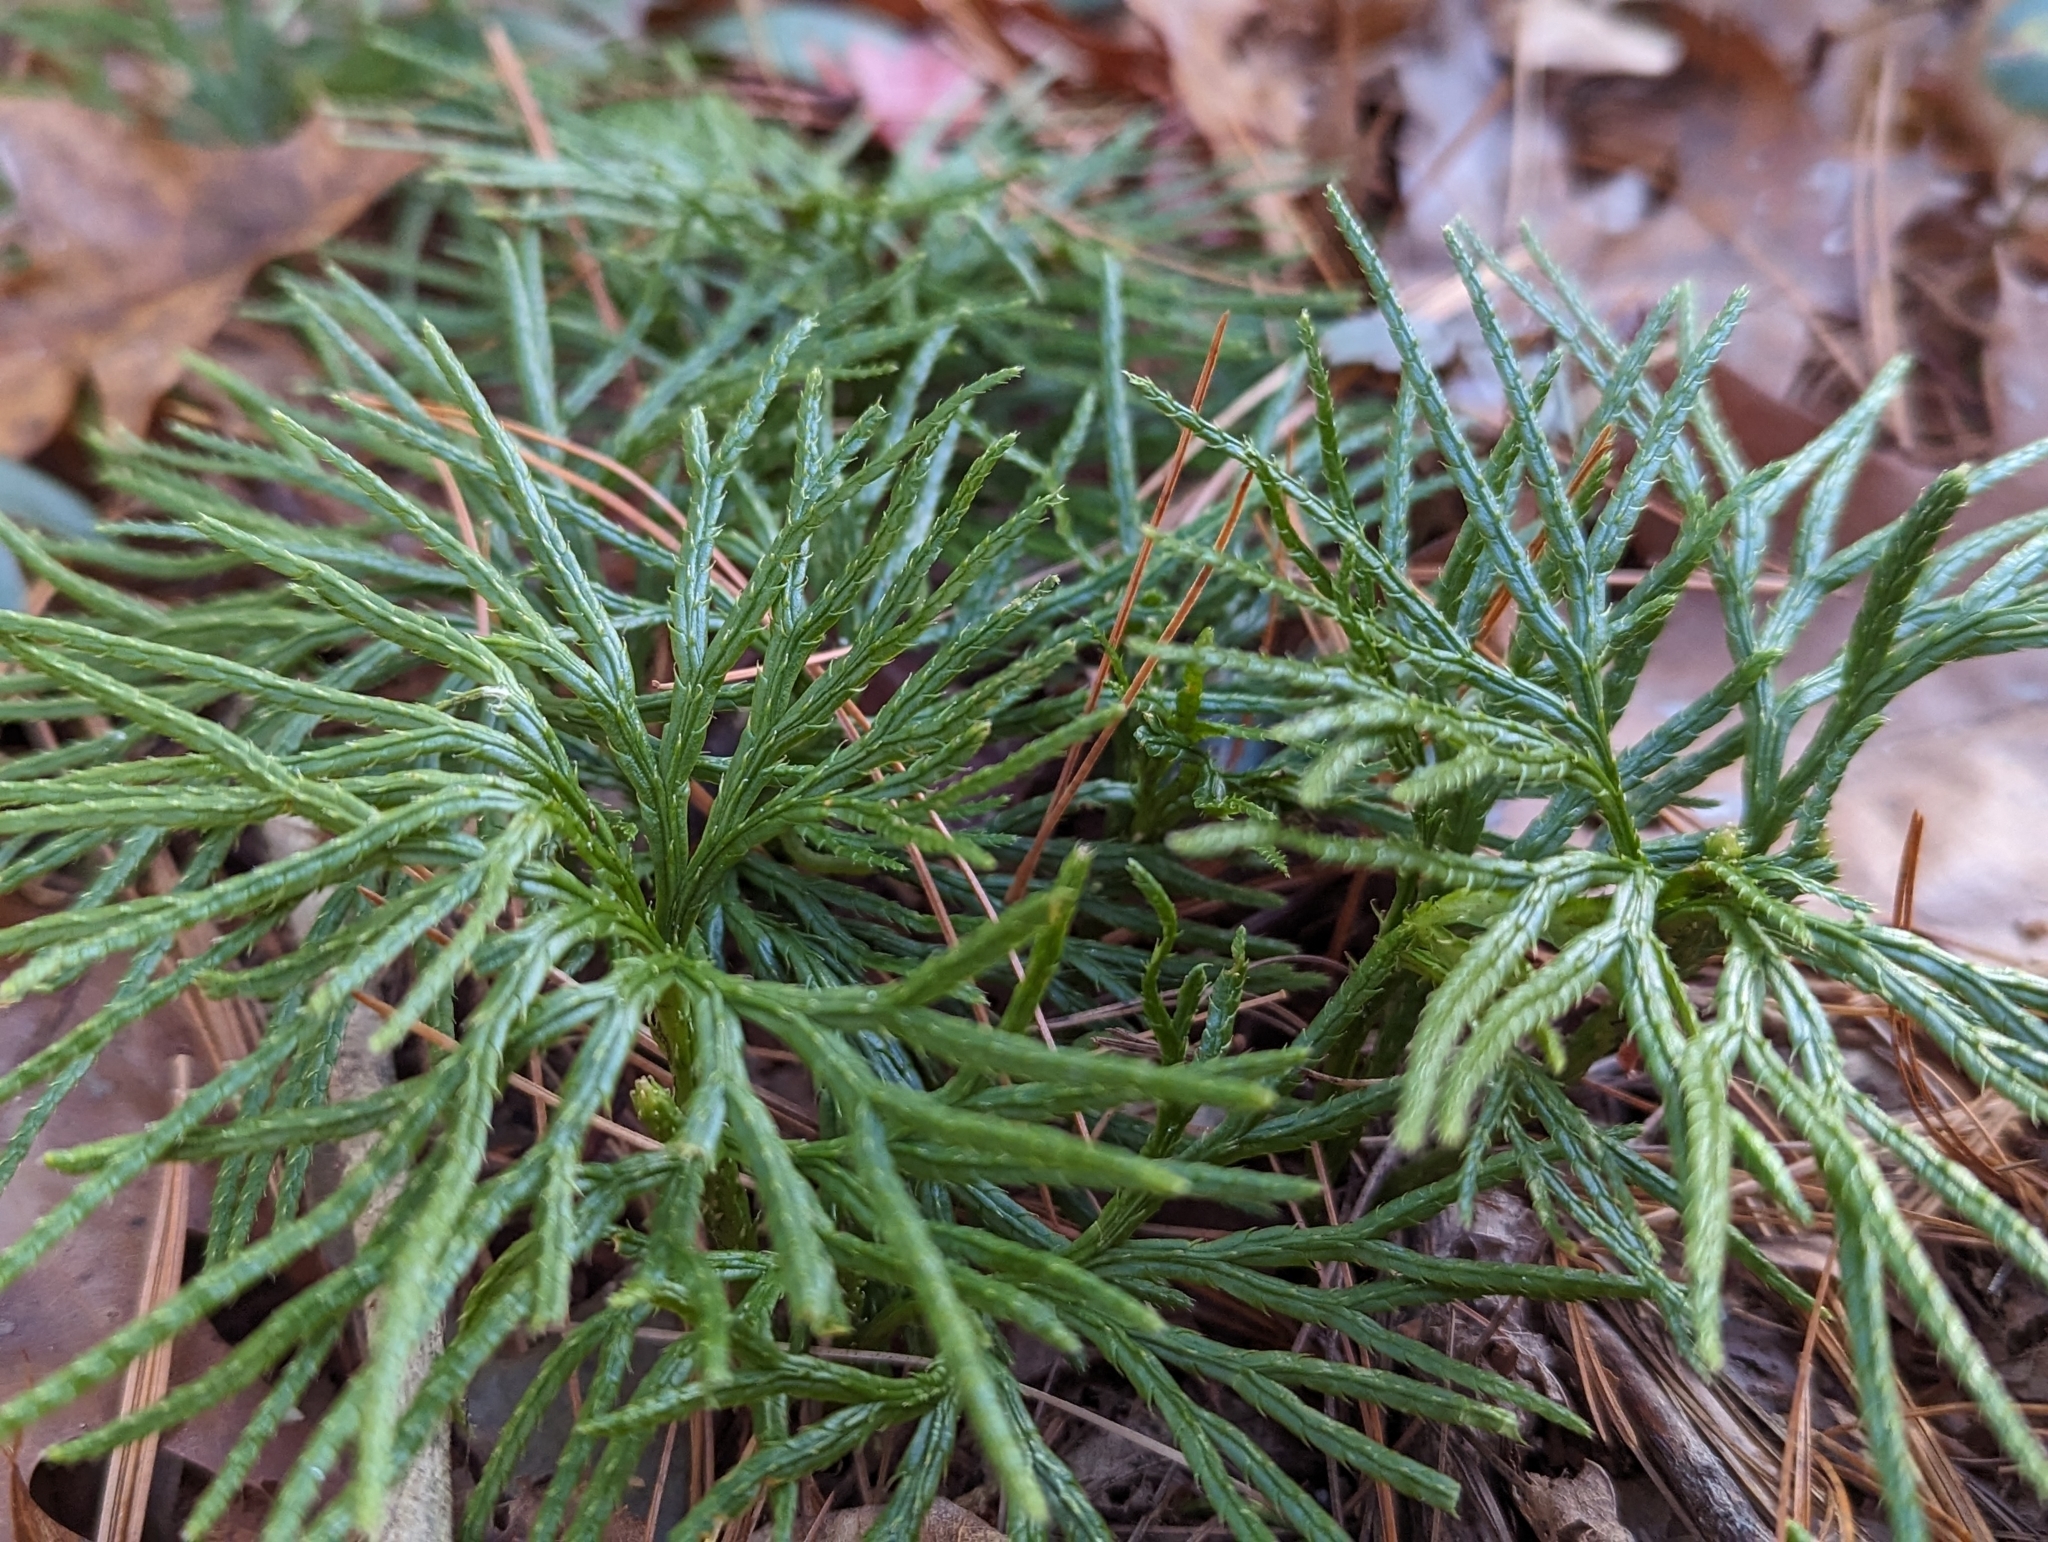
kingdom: Plantae
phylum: Tracheophyta
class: Lycopodiopsida
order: Lycopodiales
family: Lycopodiaceae
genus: Diphasiastrum
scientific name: Diphasiastrum digitatum
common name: Southern running-pine
